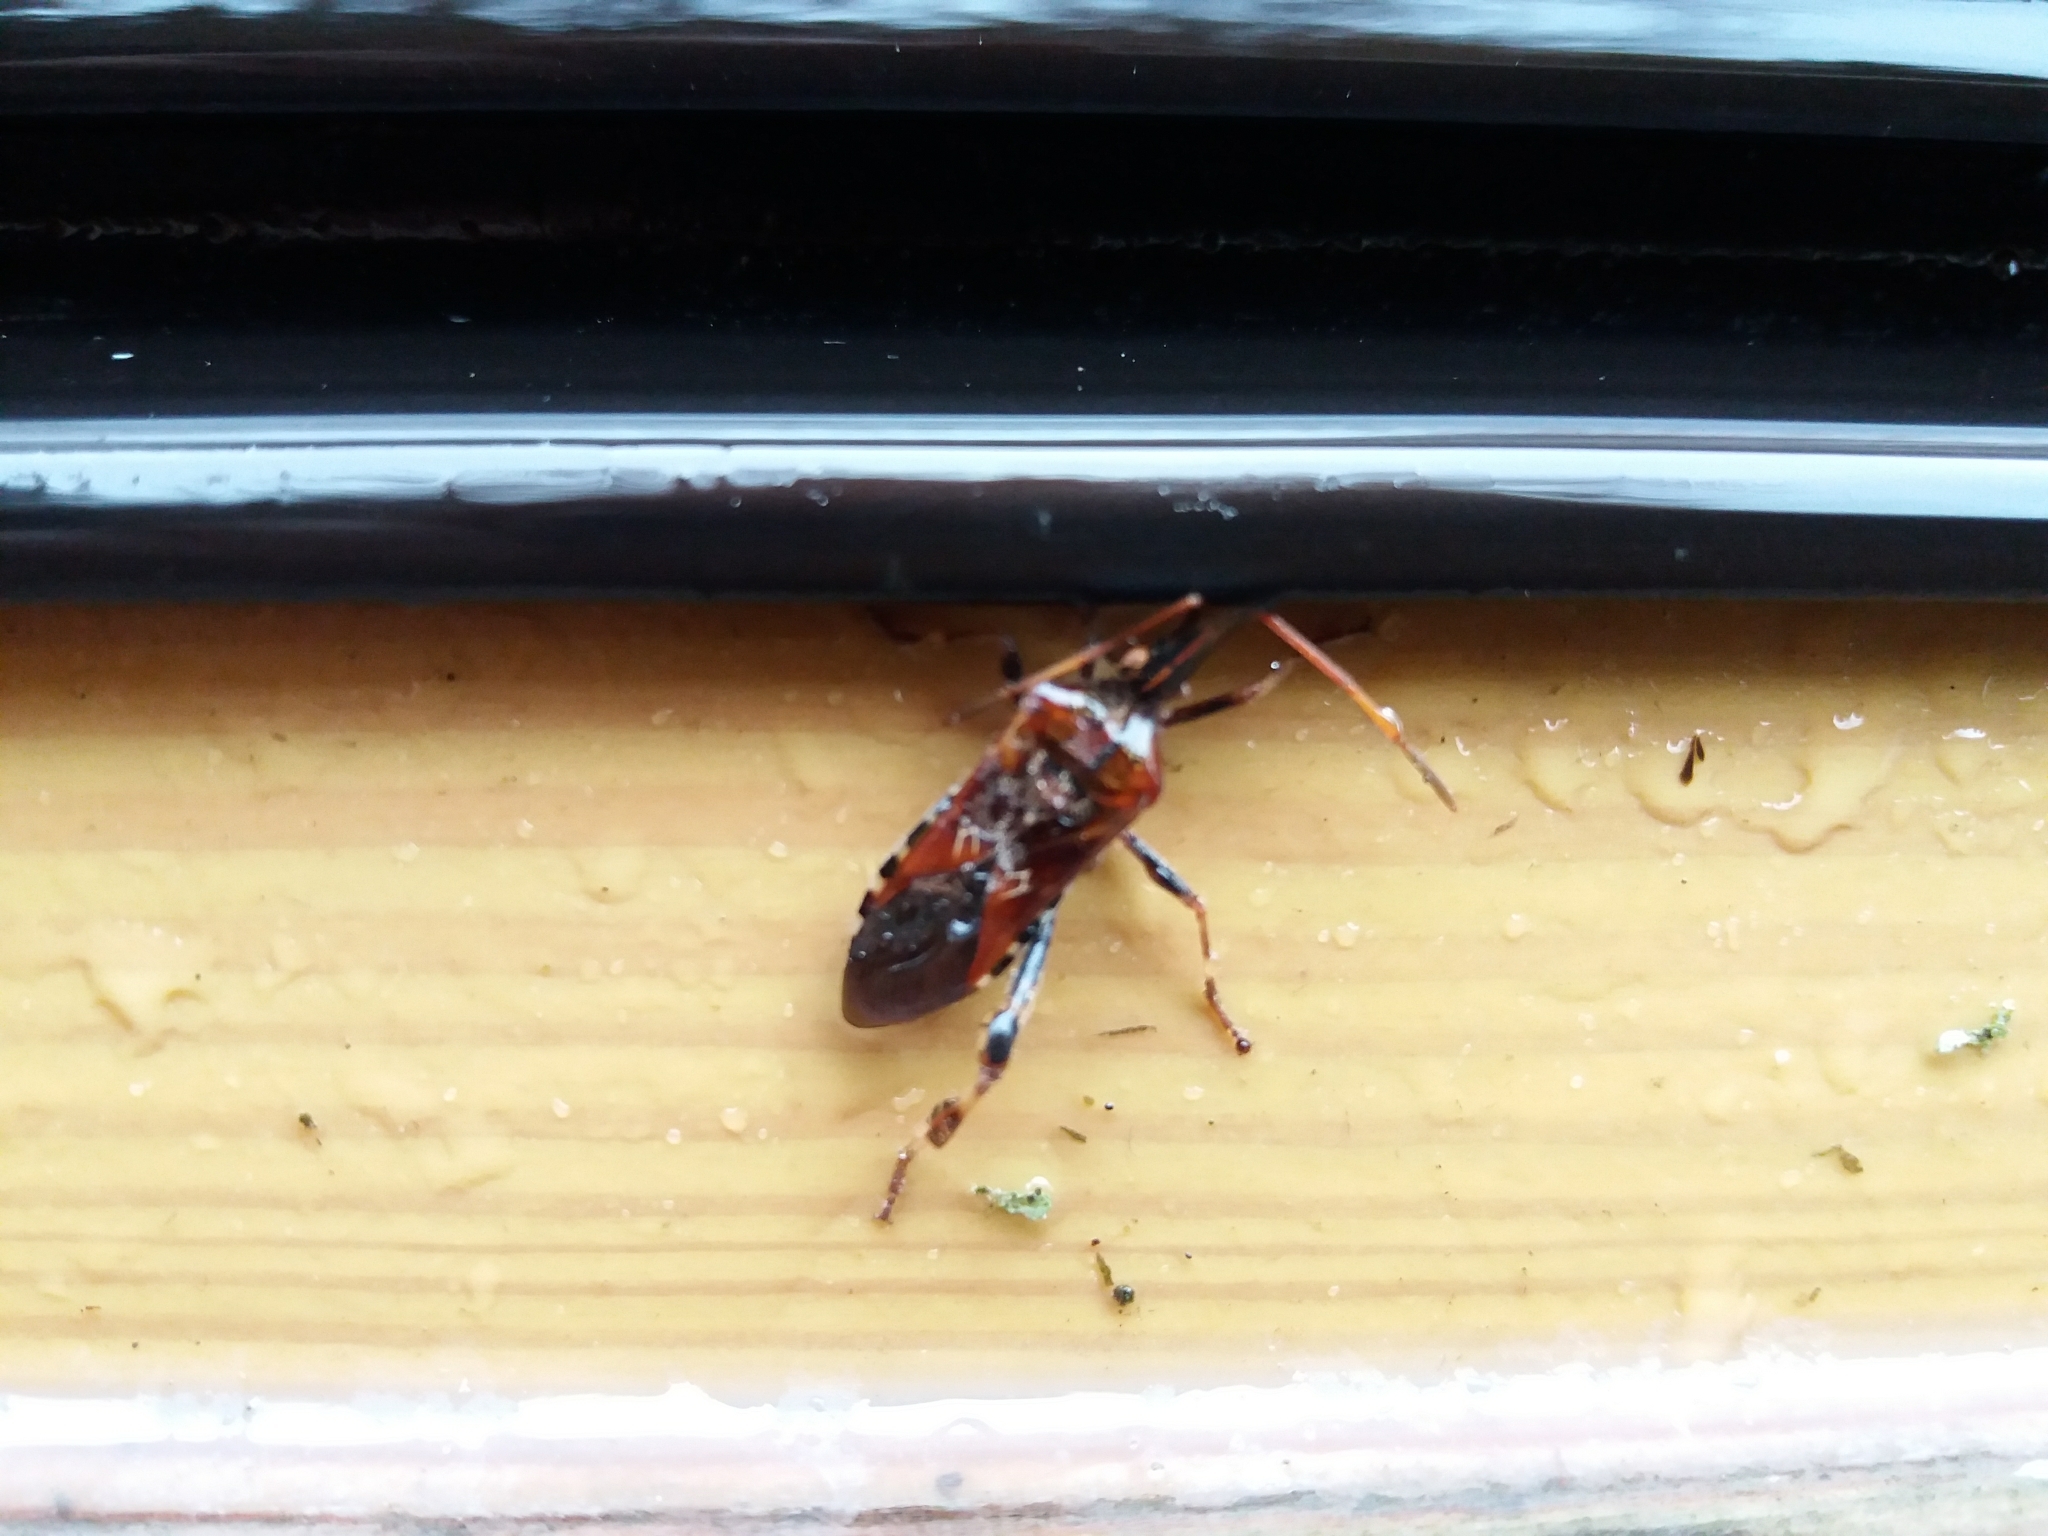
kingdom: Animalia
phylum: Arthropoda
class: Insecta
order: Hemiptera
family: Coreidae
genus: Leptoglossus
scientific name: Leptoglossus occidentalis
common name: Western conifer-seed bug
